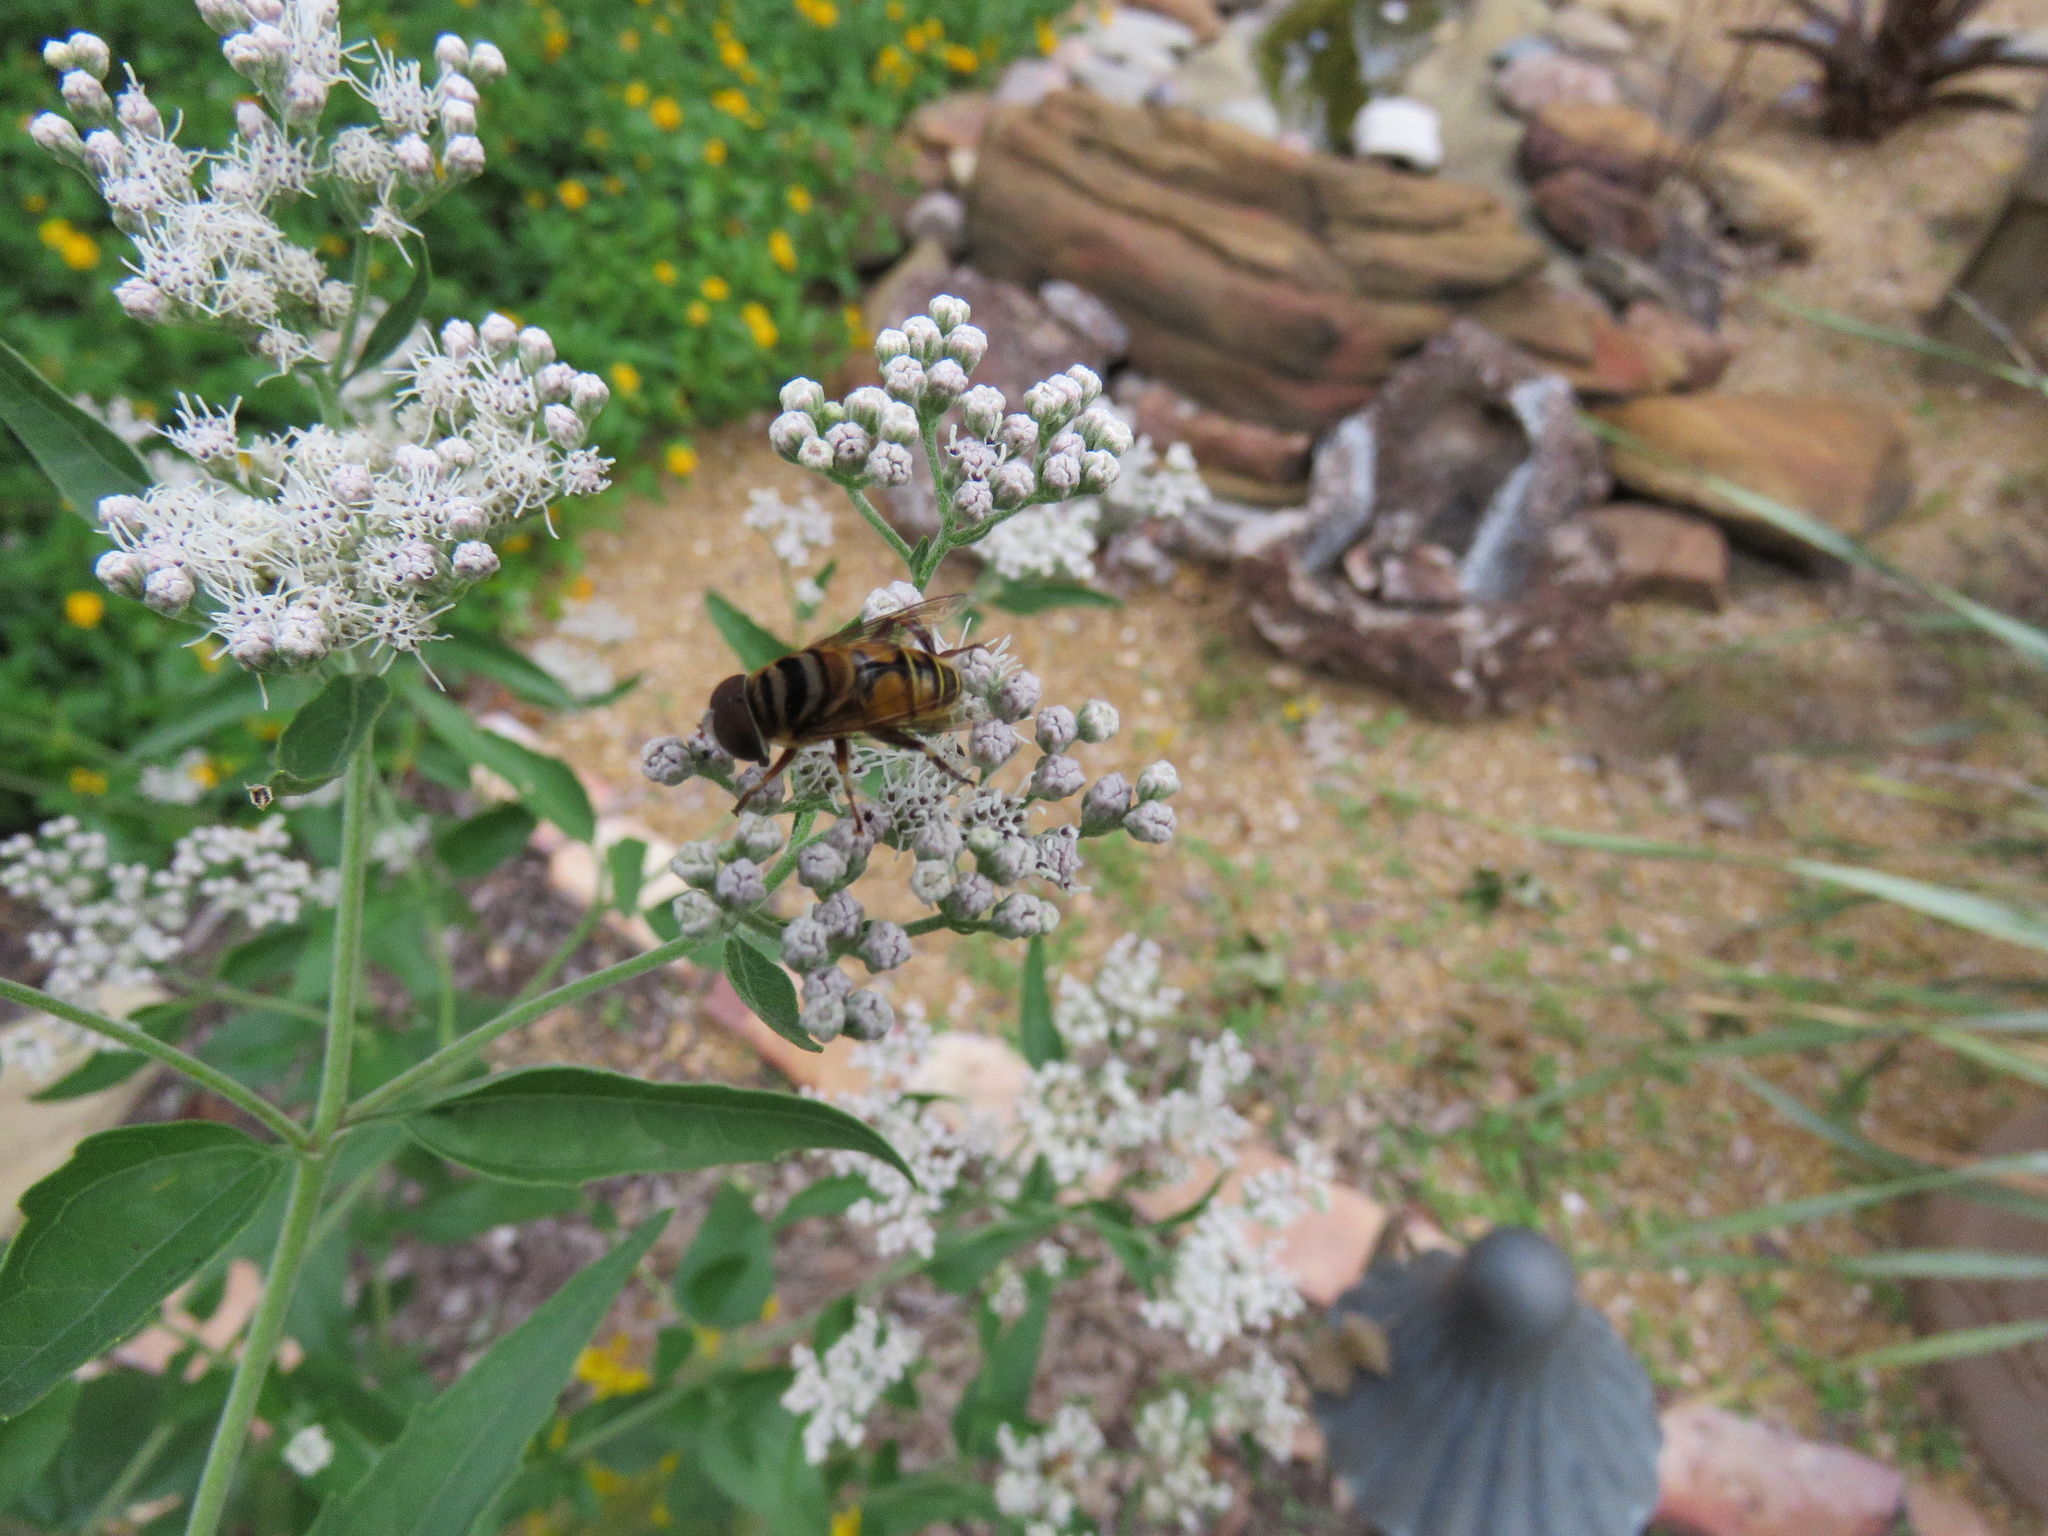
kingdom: Animalia
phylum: Arthropoda
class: Insecta
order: Diptera
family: Syrphidae
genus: Palpada
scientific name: Palpada vinetorum
